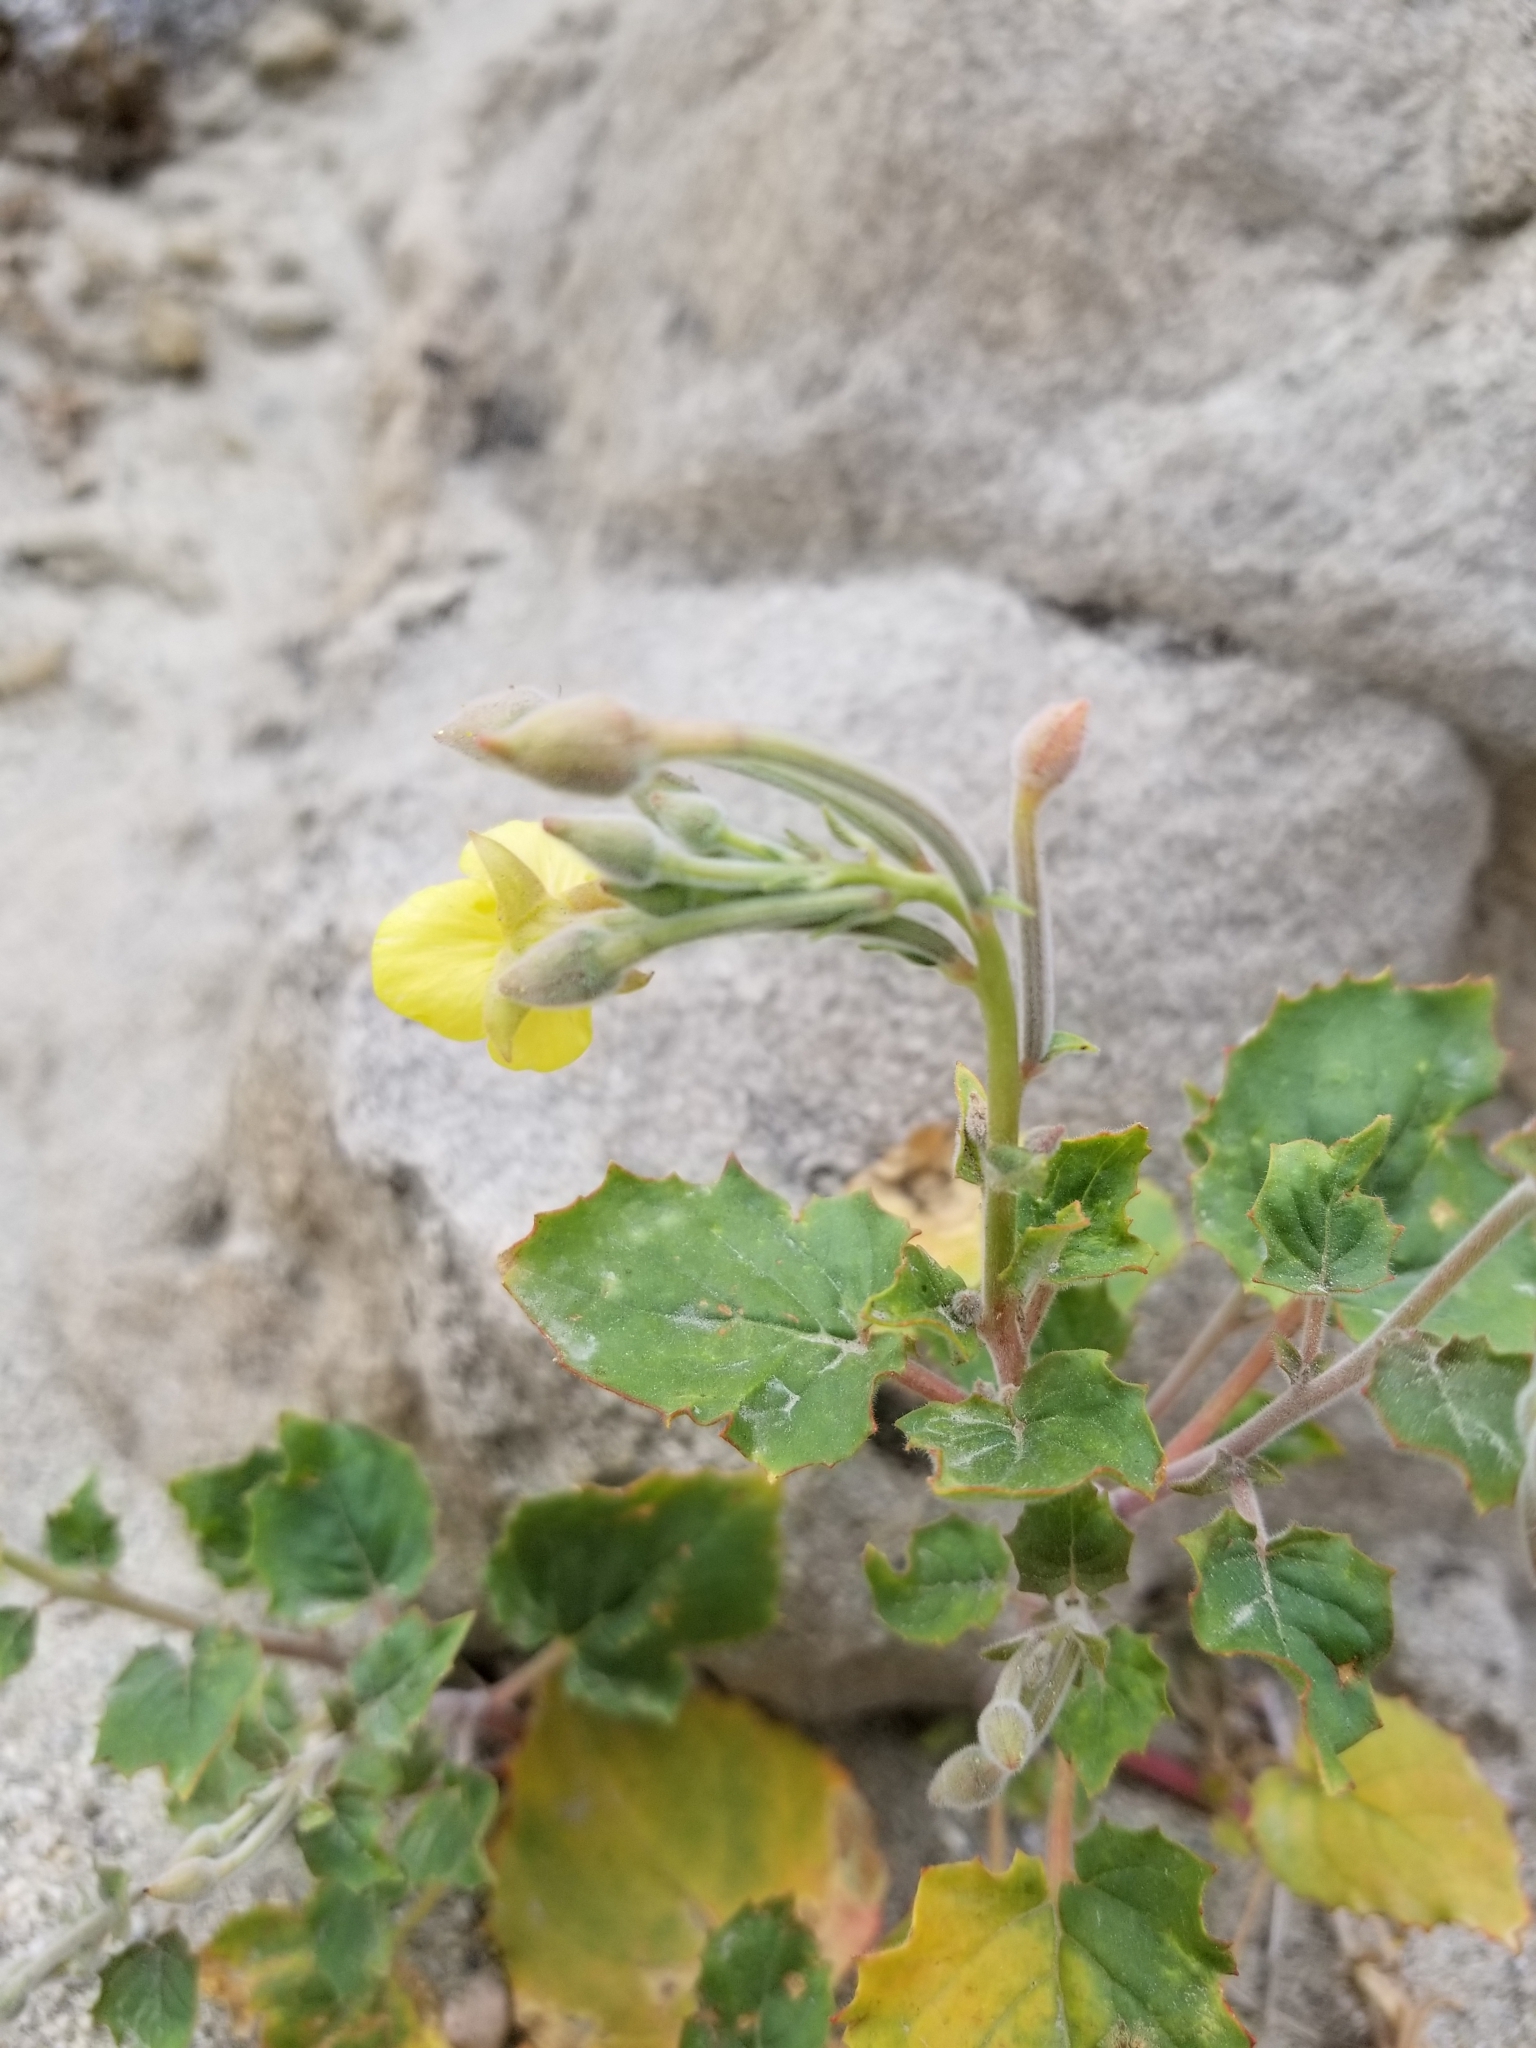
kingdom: Plantae
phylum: Tracheophyta
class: Magnoliopsida
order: Myrtales
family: Onagraceae
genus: Chylismia
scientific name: Chylismia cardiophylla
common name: Heartleaf suncup
